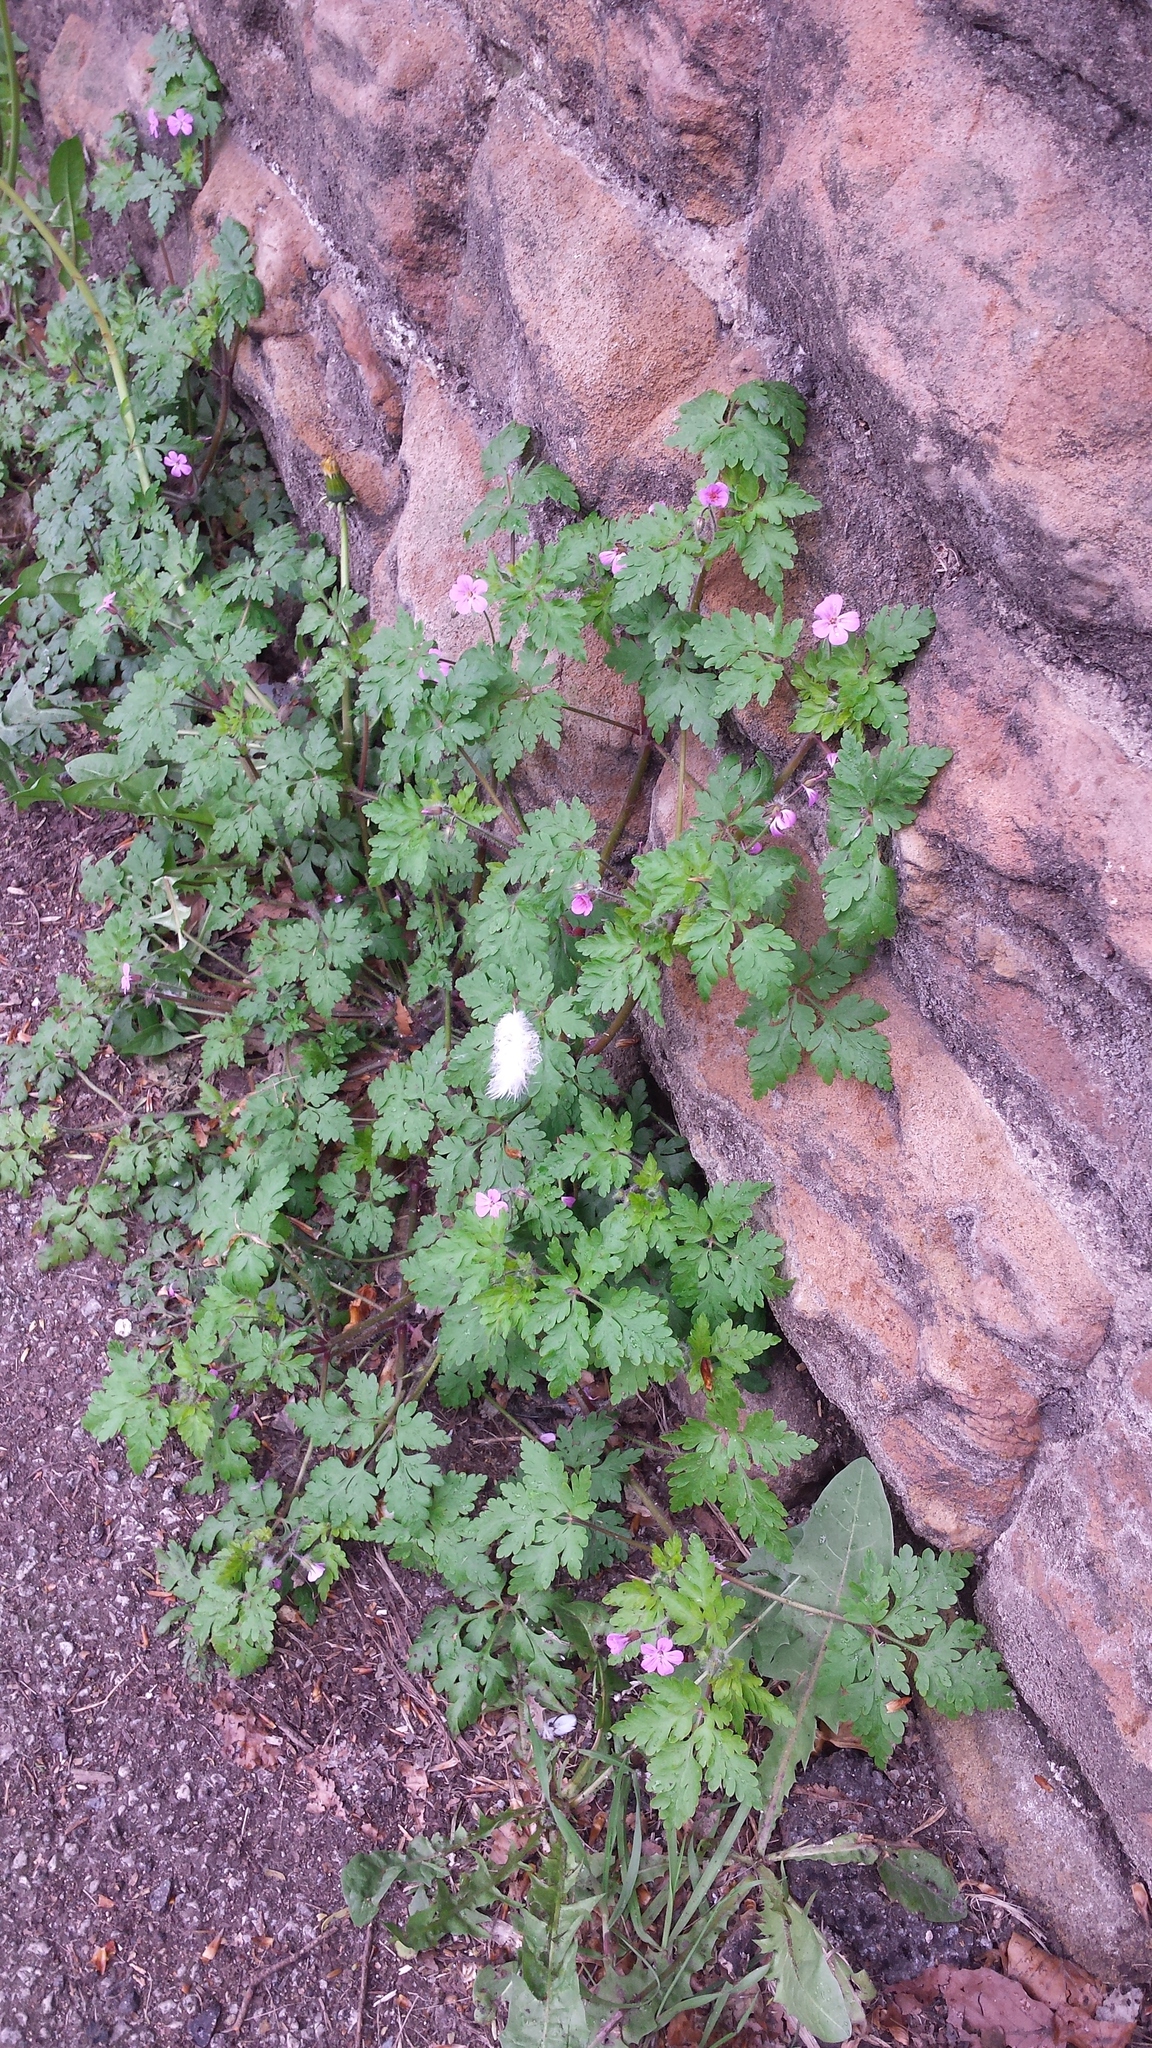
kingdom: Plantae
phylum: Tracheophyta
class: Magnoliopsida
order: Geraniales
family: Geraniaceae
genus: Geranium
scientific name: Geranium robertianum
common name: Herb-robert
